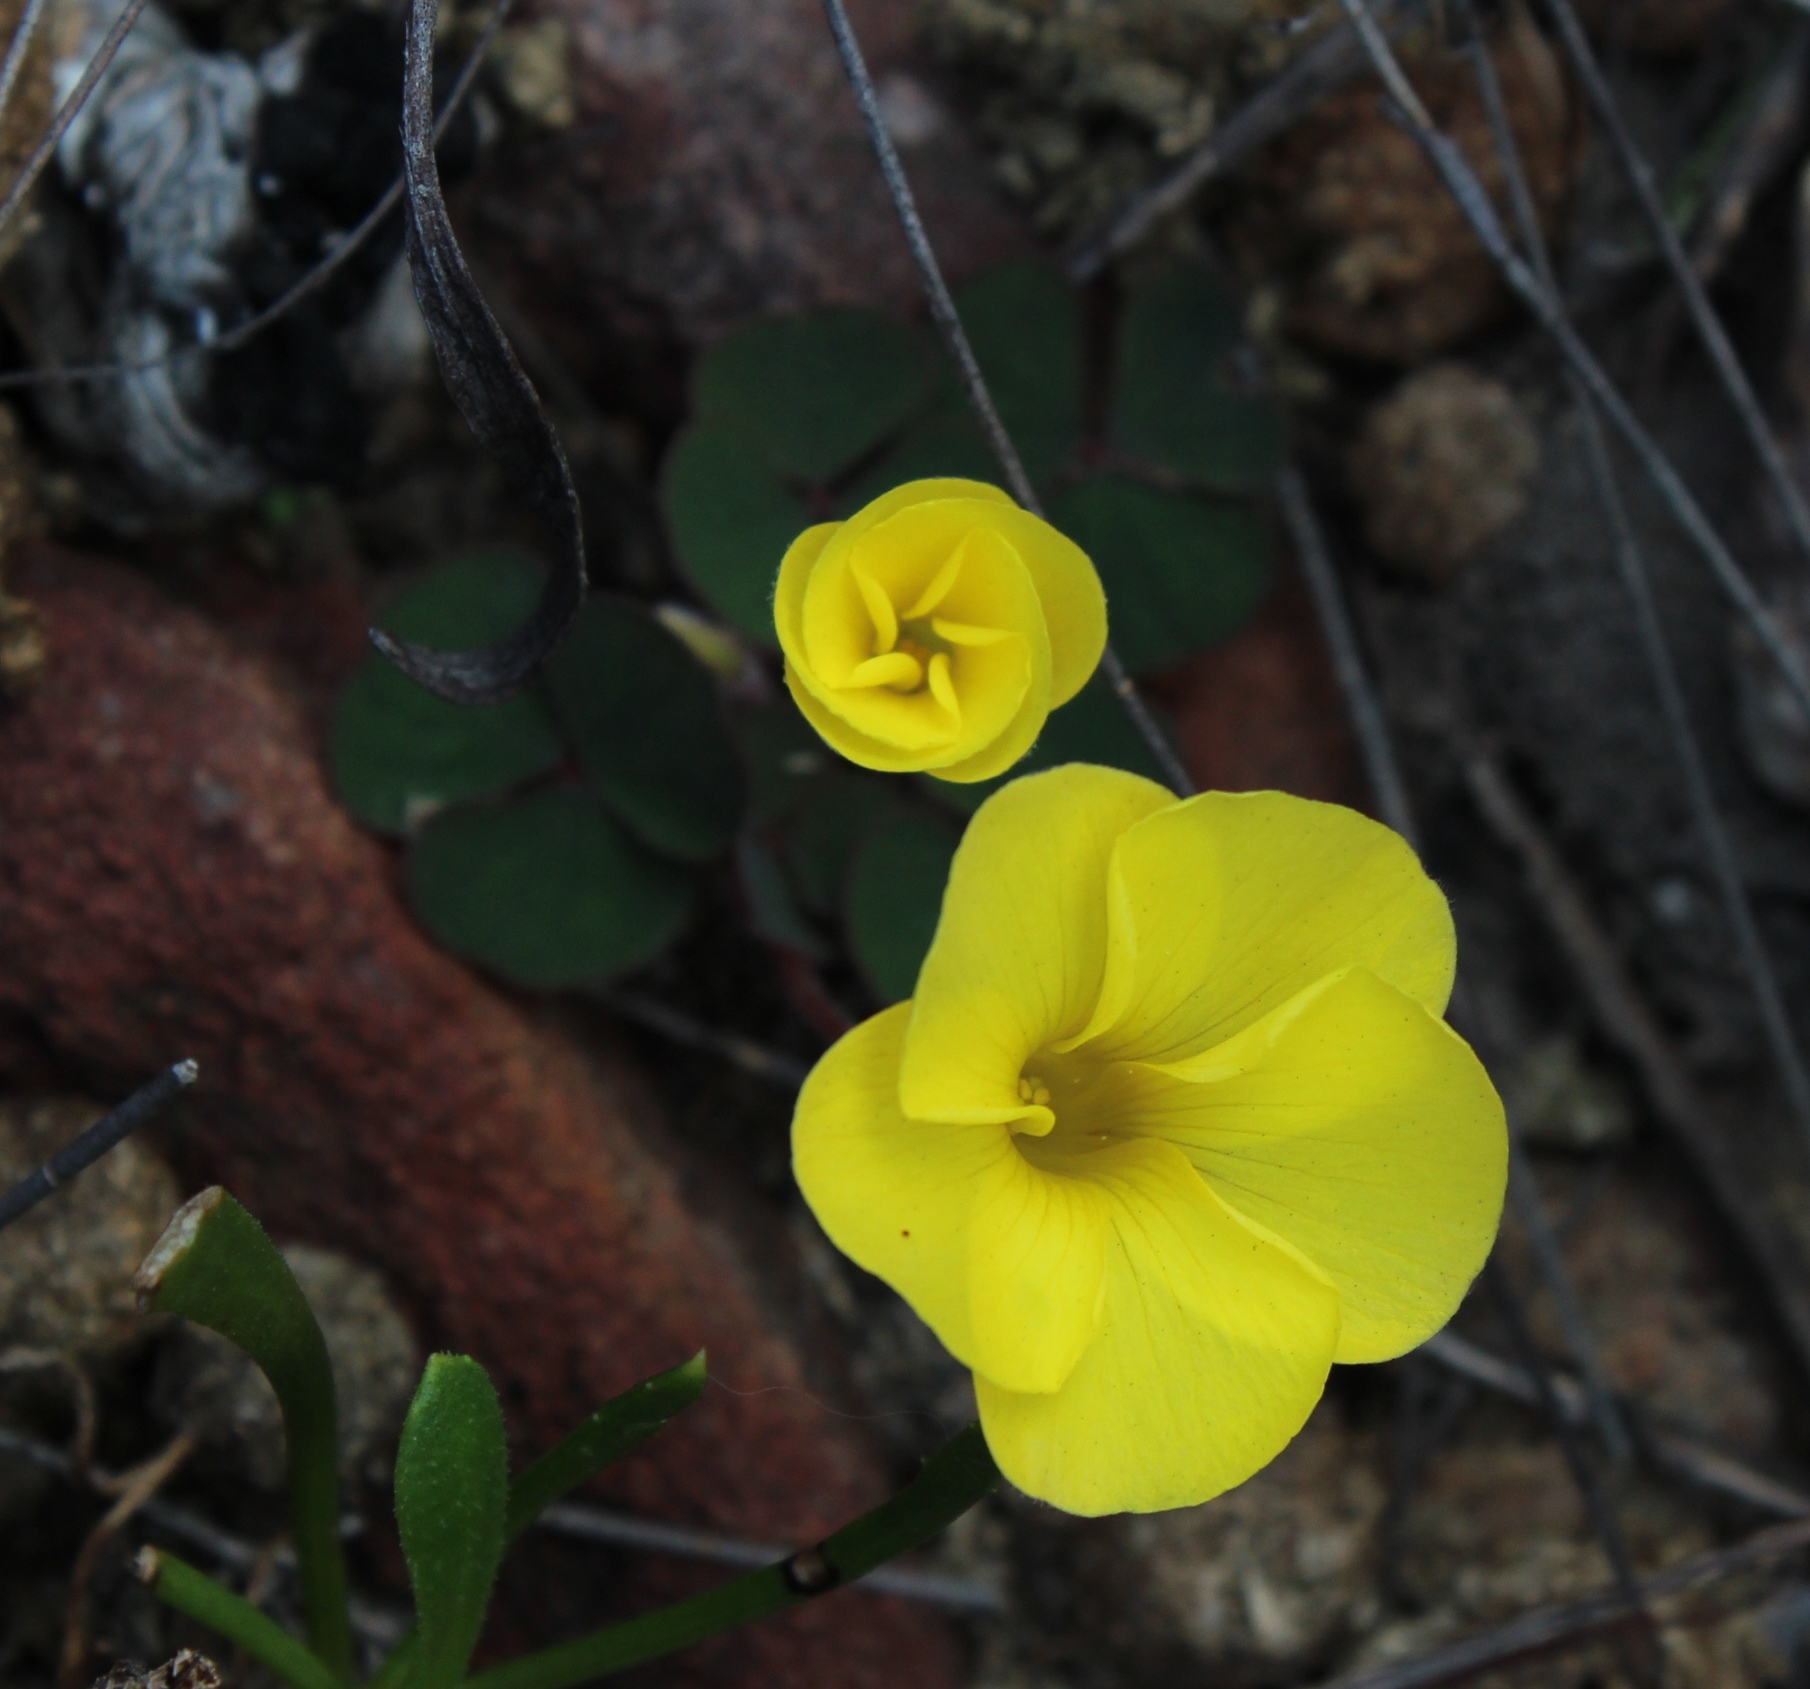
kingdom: Plantae
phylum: Tracheophyta
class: Magnoliopsida
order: Oxalidales
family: Oxalidaceae
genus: Oxalis
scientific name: Oxalis luteola
